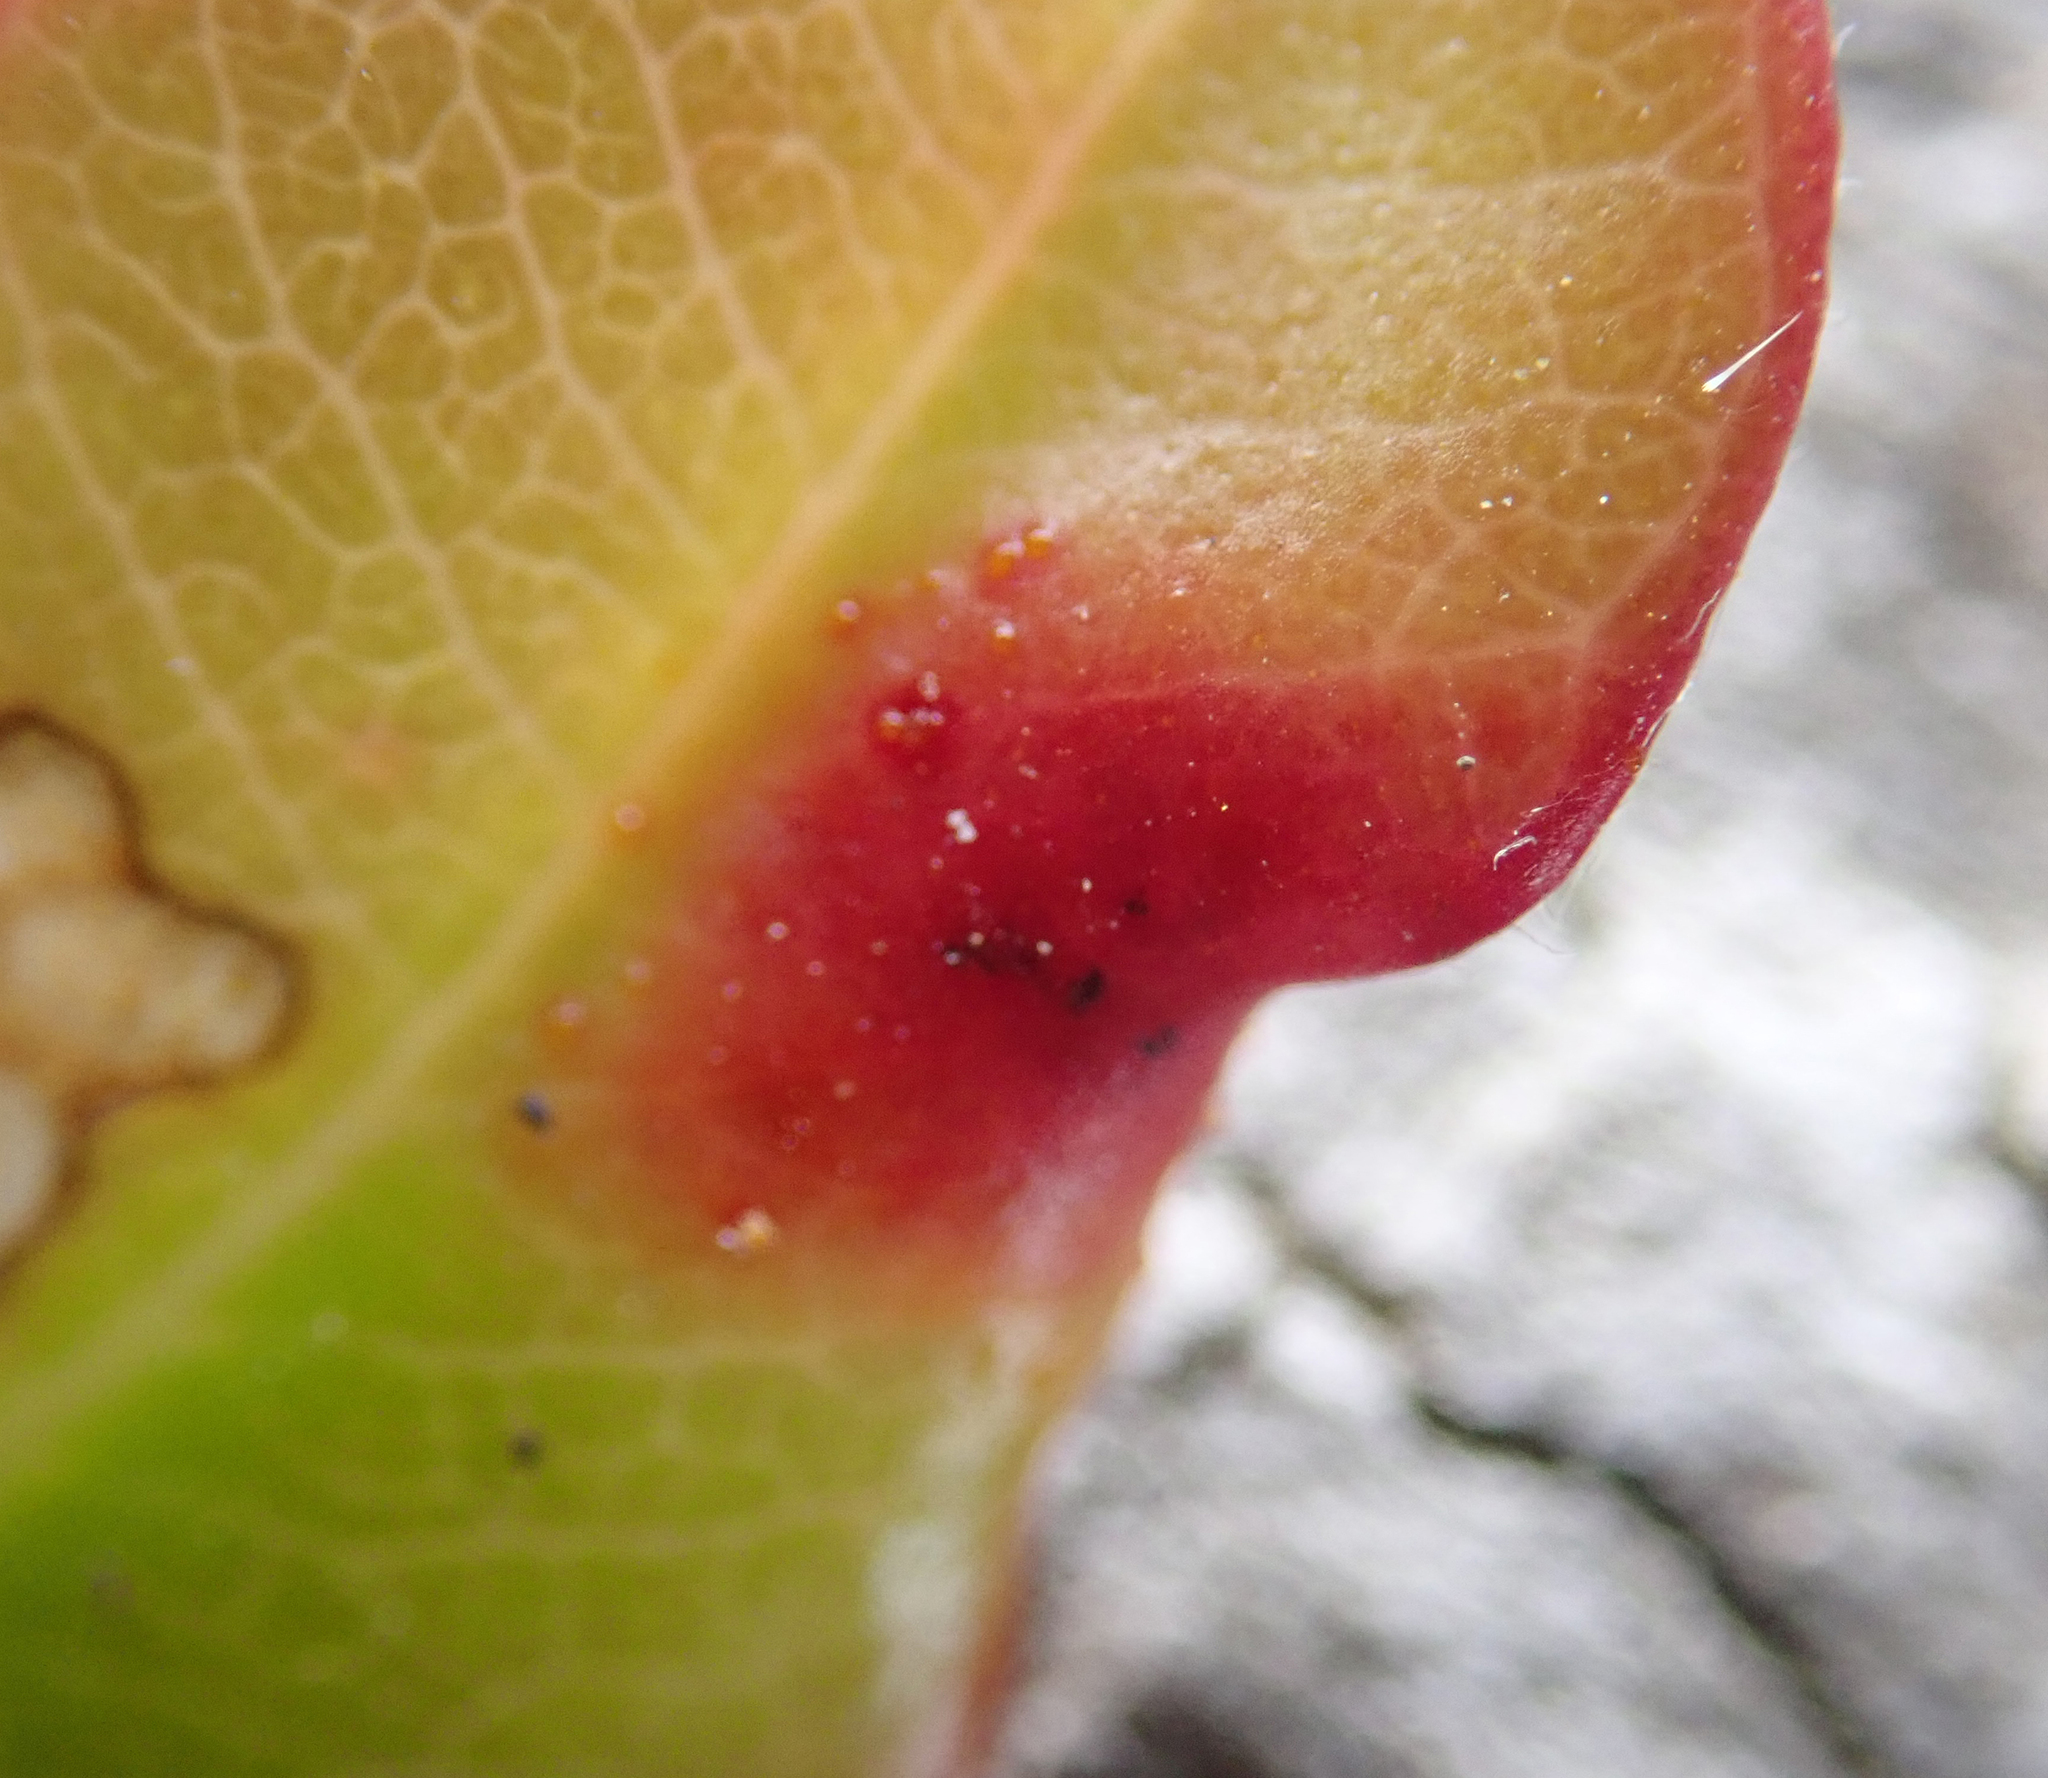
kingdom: Fungi
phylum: Basidiomycota
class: Pucciniomycetes
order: Pucciniales
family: Sphaerophragmiaceae
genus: Austropuccinia
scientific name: Austropuccinia psidii
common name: Myrtle rust
